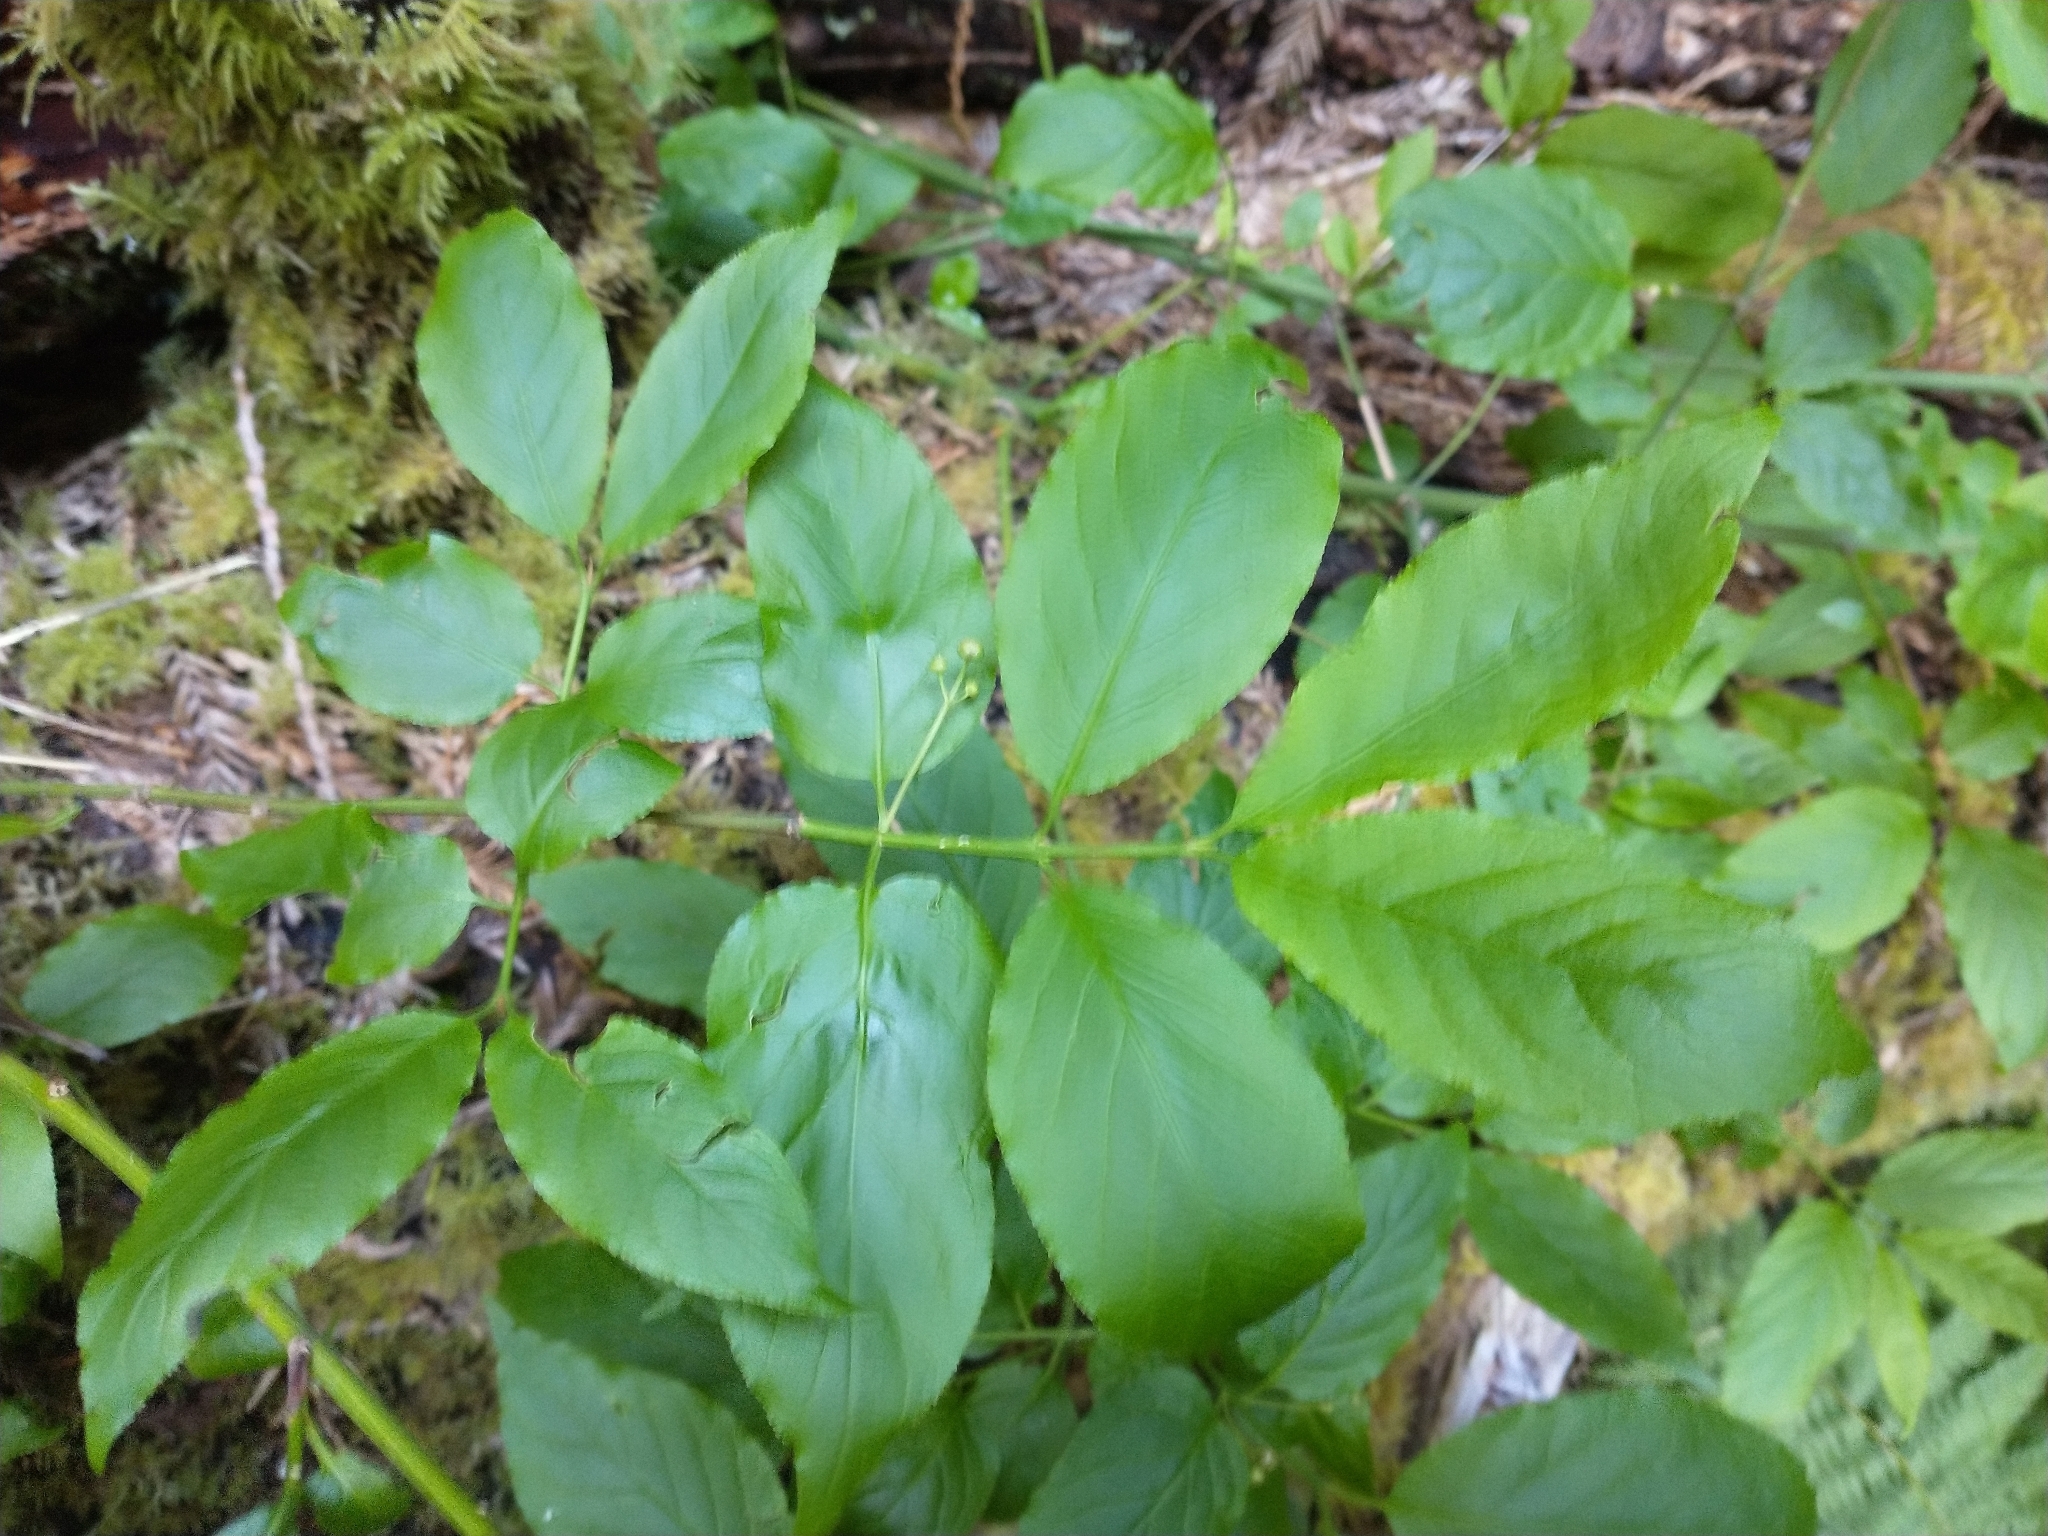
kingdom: Plantae
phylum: Tracheophyta
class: Magnoliopsida
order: Celastrales
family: Celastraceae
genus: Euonymus
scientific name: Euonymus occidentalis
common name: Western burningbush
